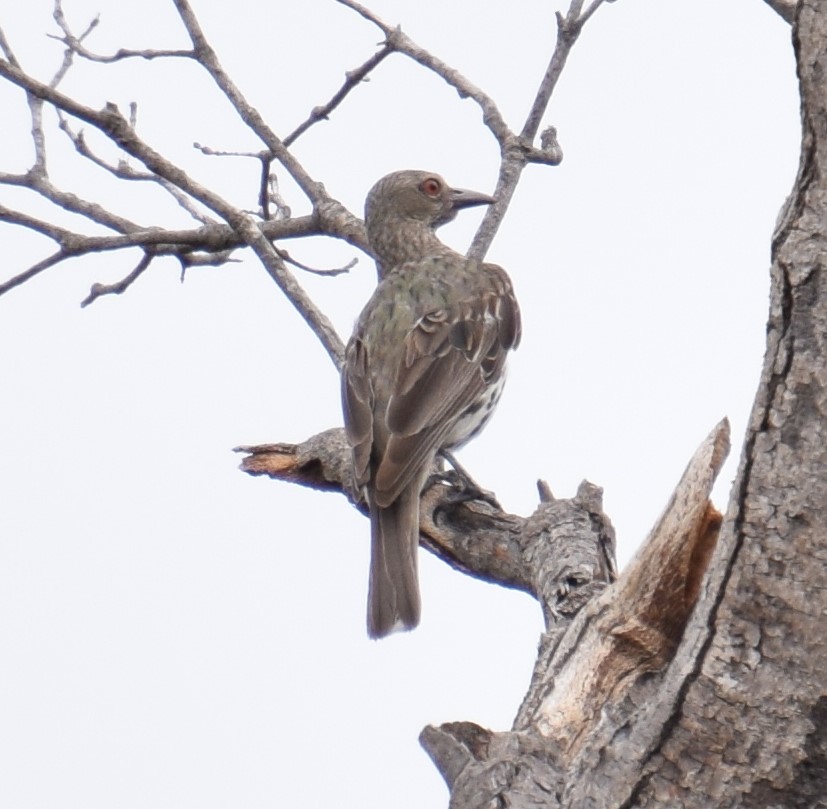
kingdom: Animalia
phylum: Chordata
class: Aves
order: Passeriformes
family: Oriolidae
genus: Oriolus
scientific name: Oriolus sagittatus
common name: Olive-backed oriole
